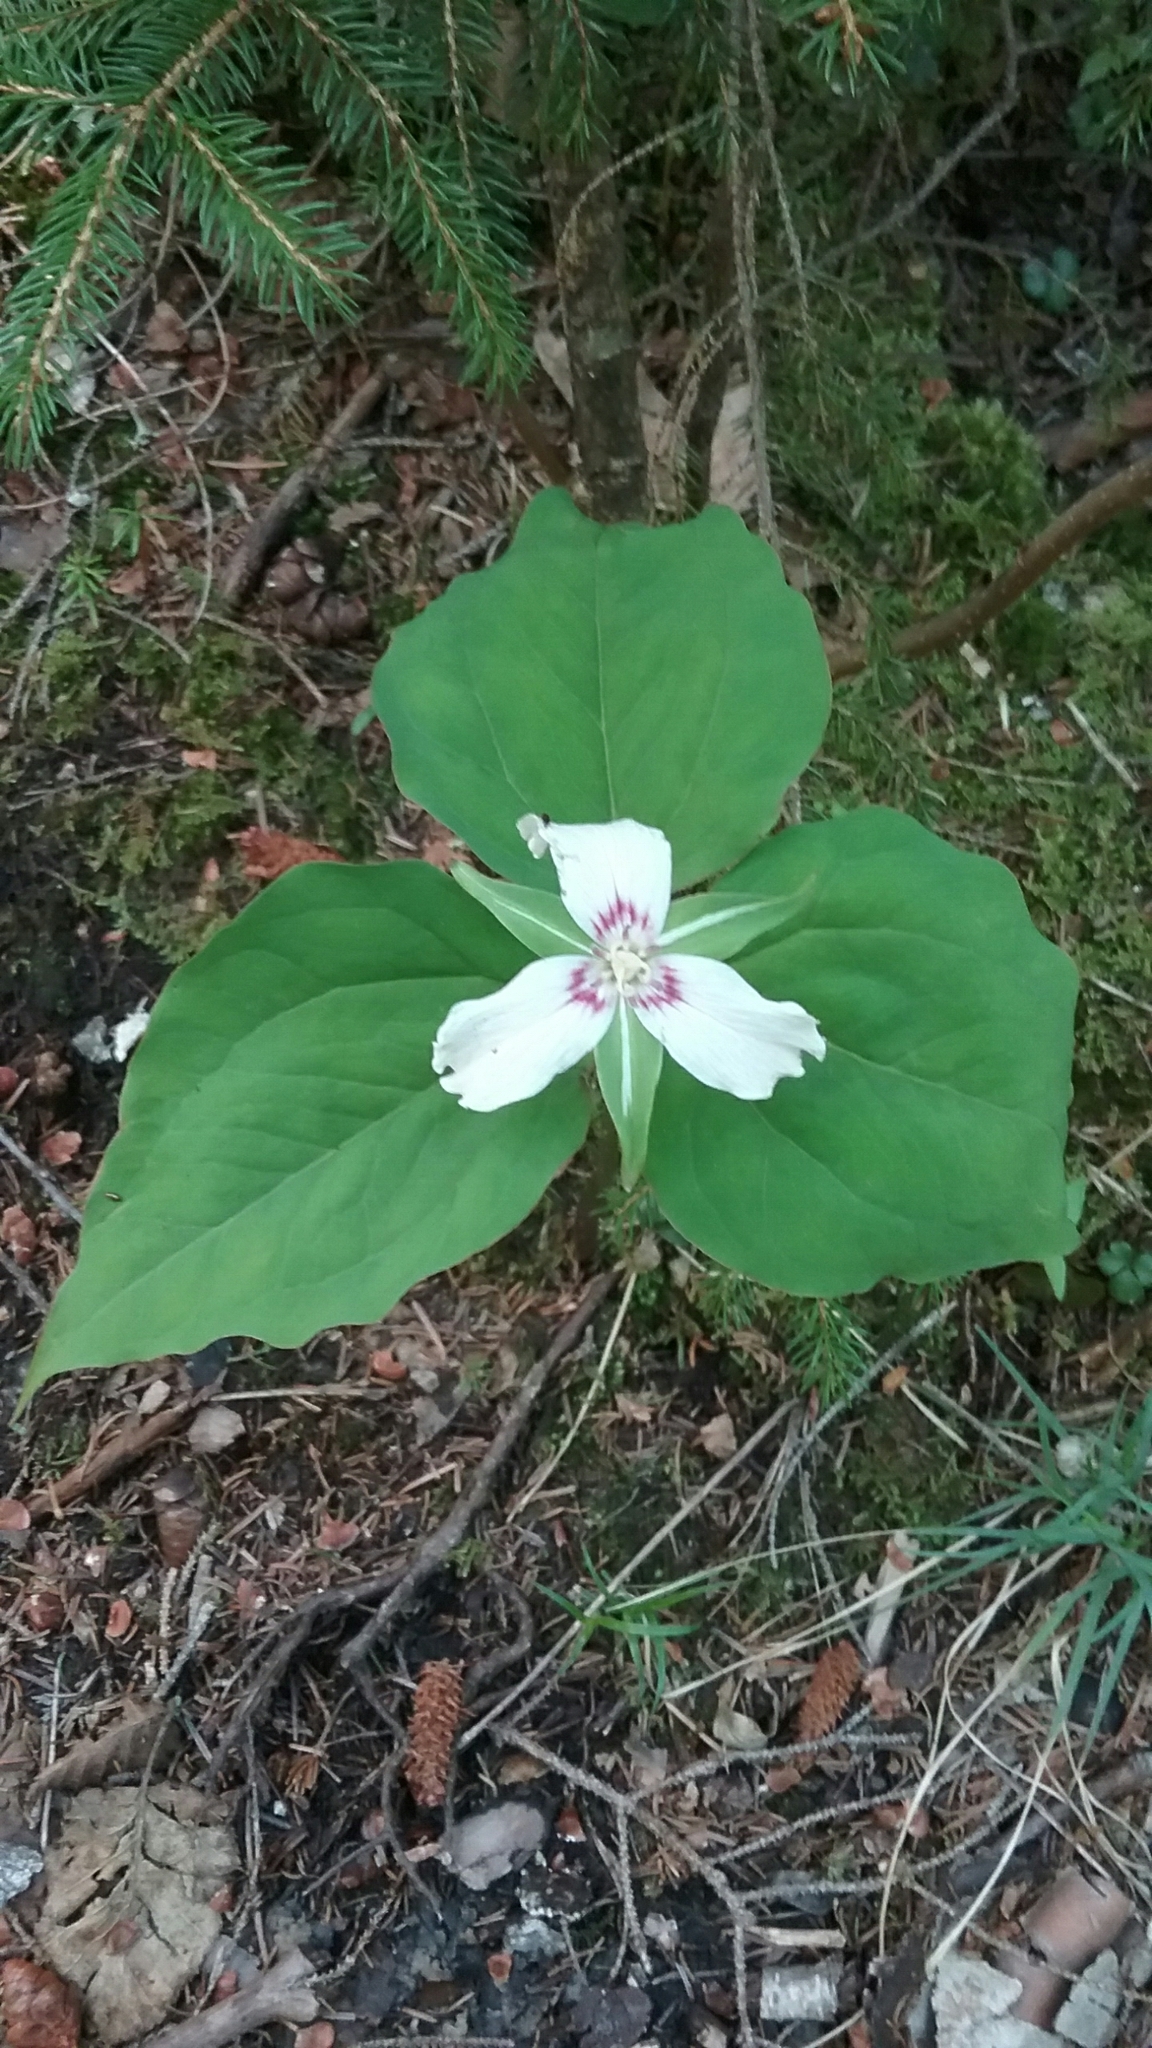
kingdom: Plantae
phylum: Tracheophyta
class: Liliopsida
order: Liliales
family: Melanthiaceae
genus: Trillium
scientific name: Trillium undulatum
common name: Paint trillium
